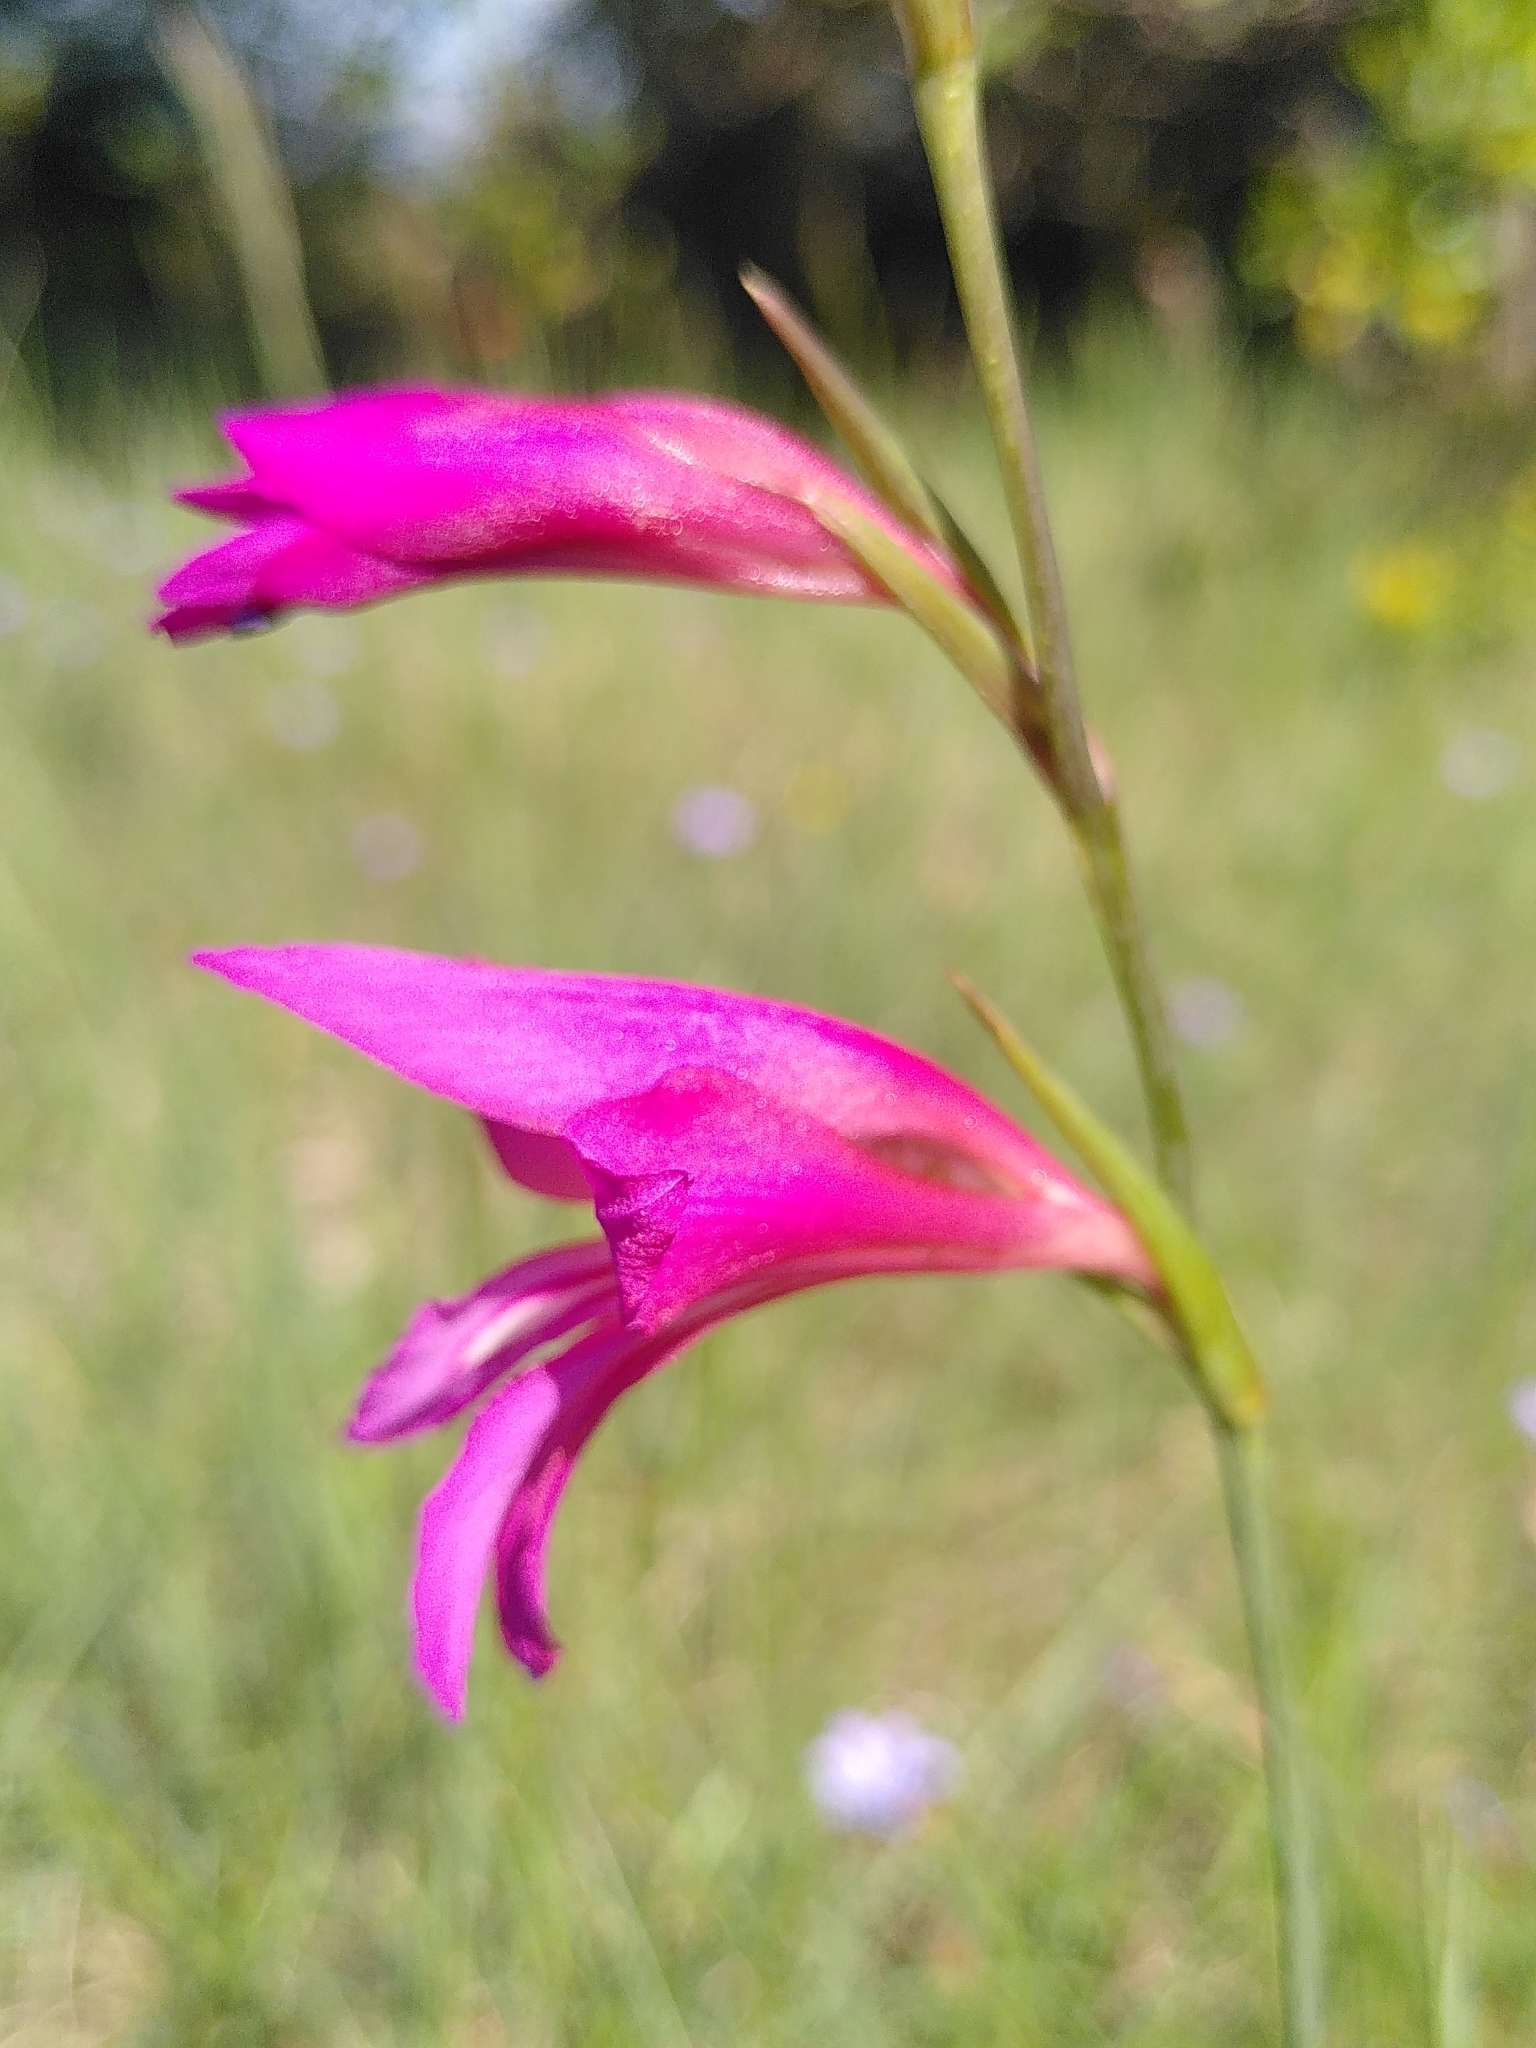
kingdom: Plantae
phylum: Tracheophyta
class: Liliopsida
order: Asparagales
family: Iridaceae
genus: Gladiolus
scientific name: Gladiolus dubius
